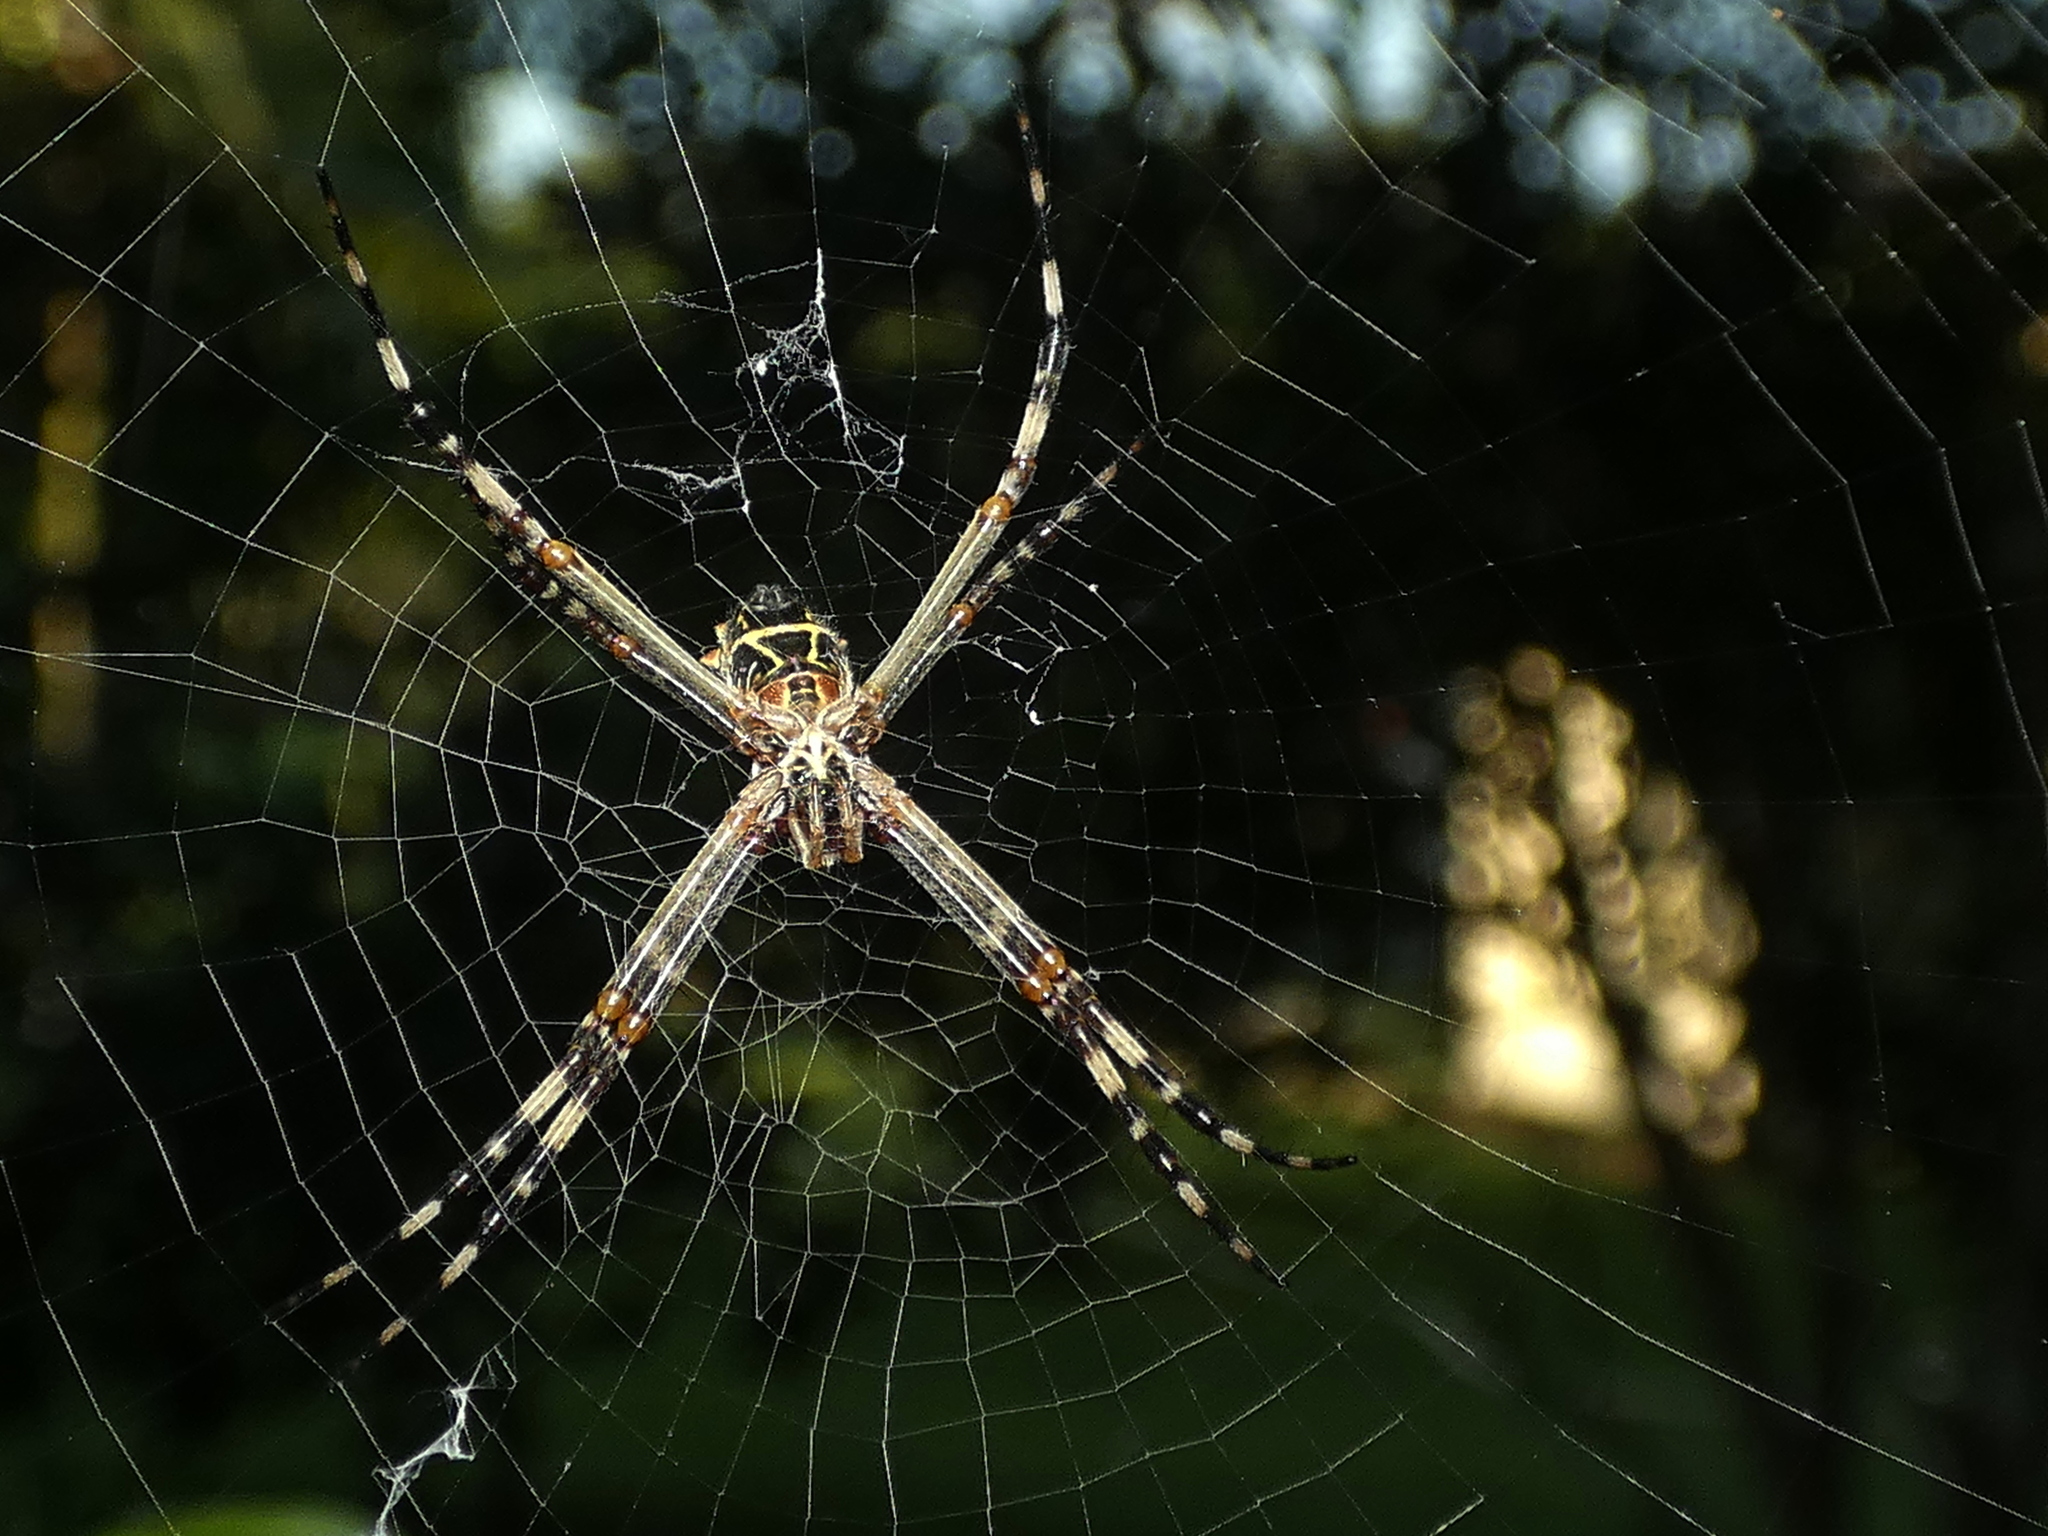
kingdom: Animalia
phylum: Arthropoda
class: Arachnida
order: Araneae
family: Araneidae
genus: Argiope
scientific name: Argiope argentata
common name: Orb weavers
